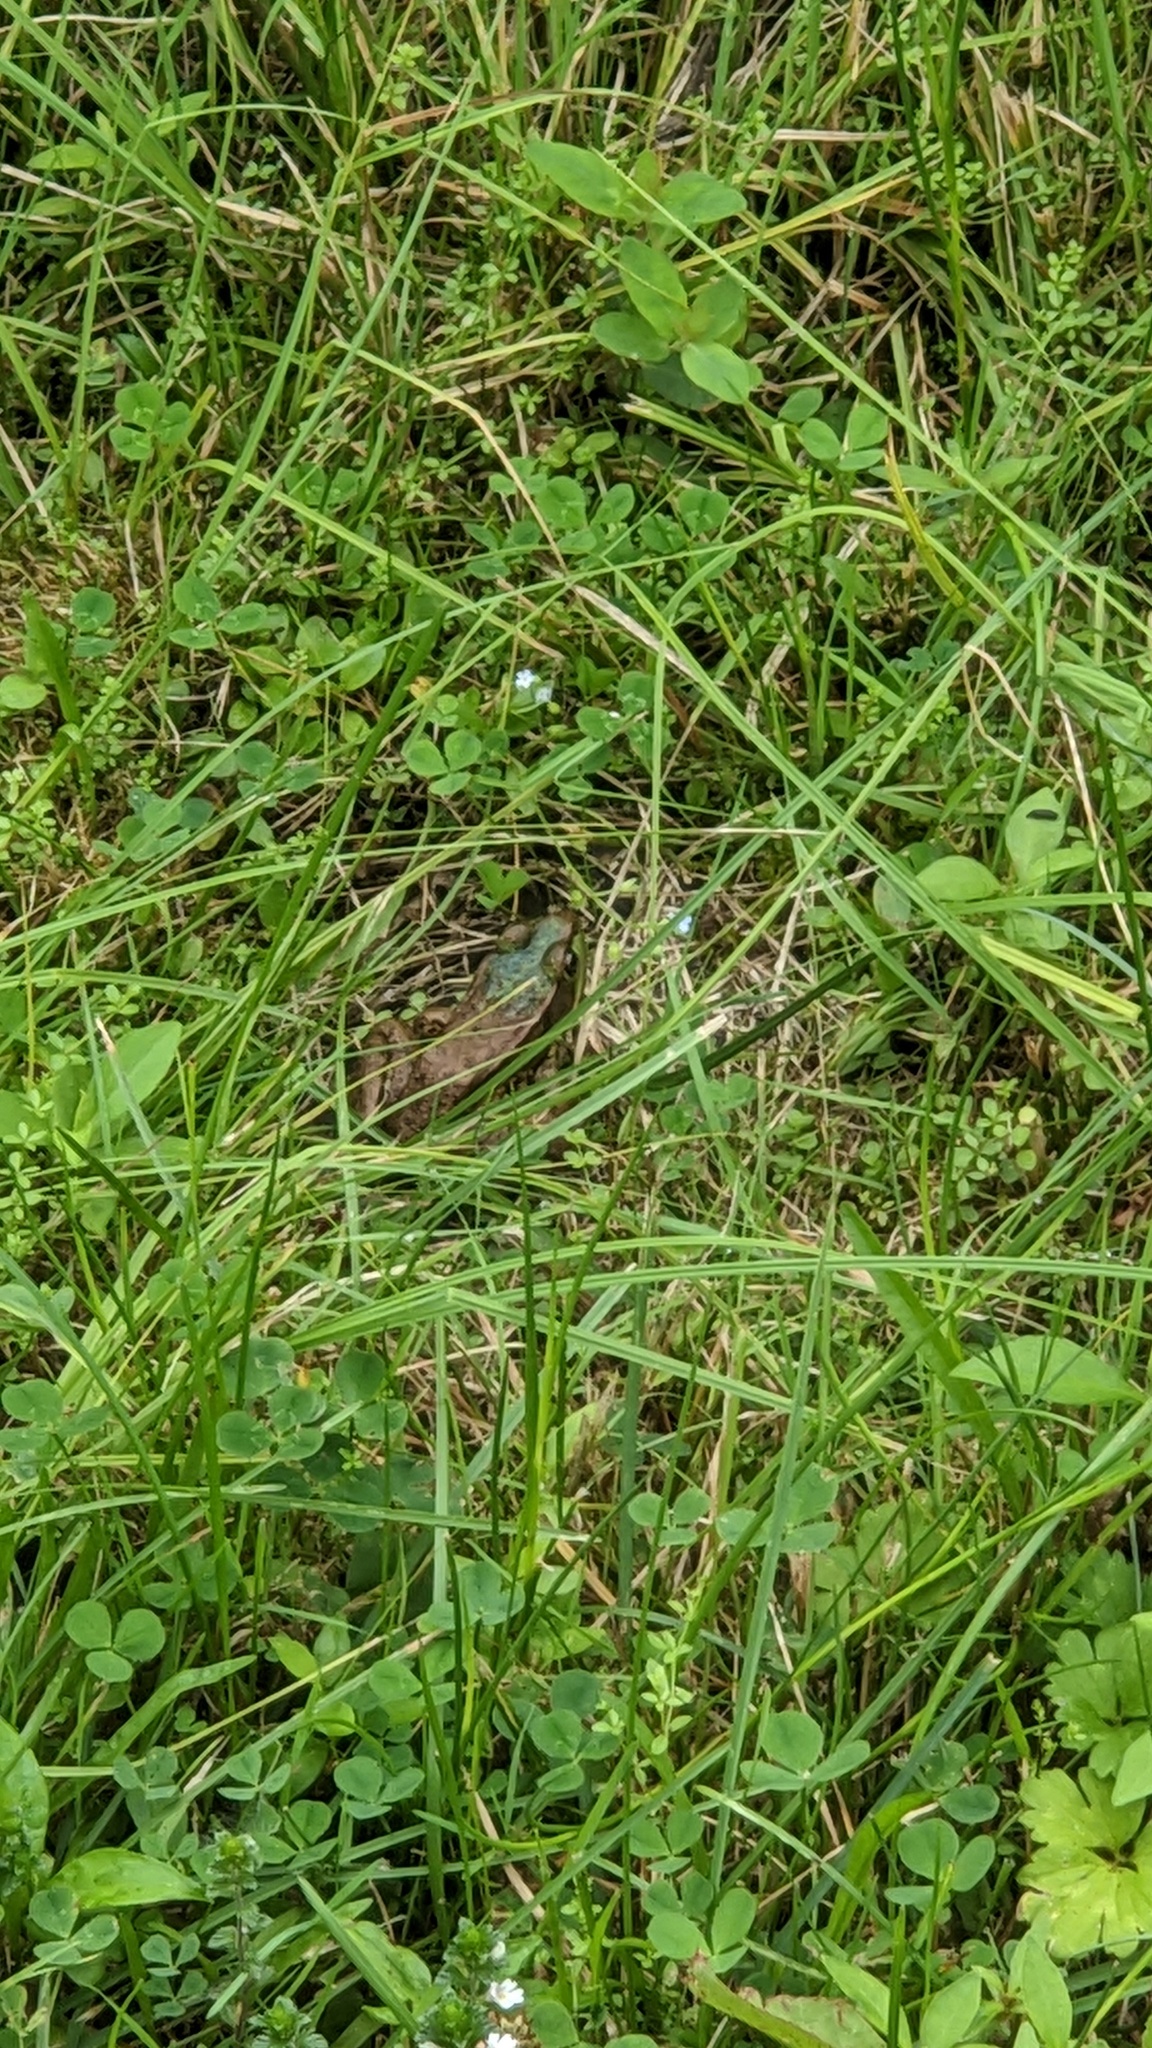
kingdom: Animalia
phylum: Chordata
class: Amphibia
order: Anura
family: Ranidae
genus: Lithobates
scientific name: Lithobates clamitans
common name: Green frog
